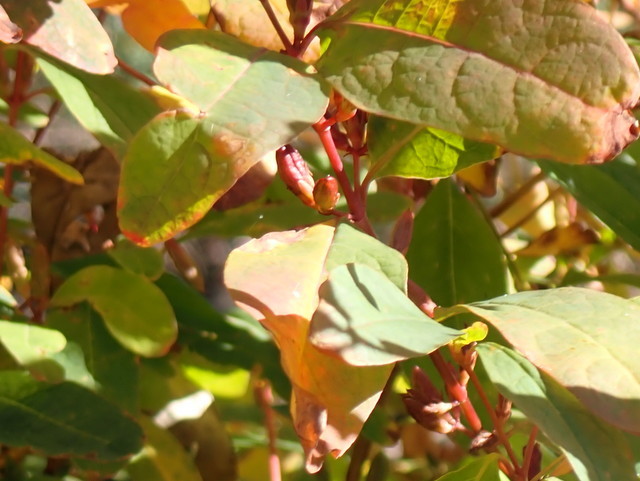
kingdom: Plantae
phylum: Tracheophyta
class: Magnoliopsida
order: Malpighiales
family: Hypericaceae
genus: Triadenum
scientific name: Triadenum walteri
